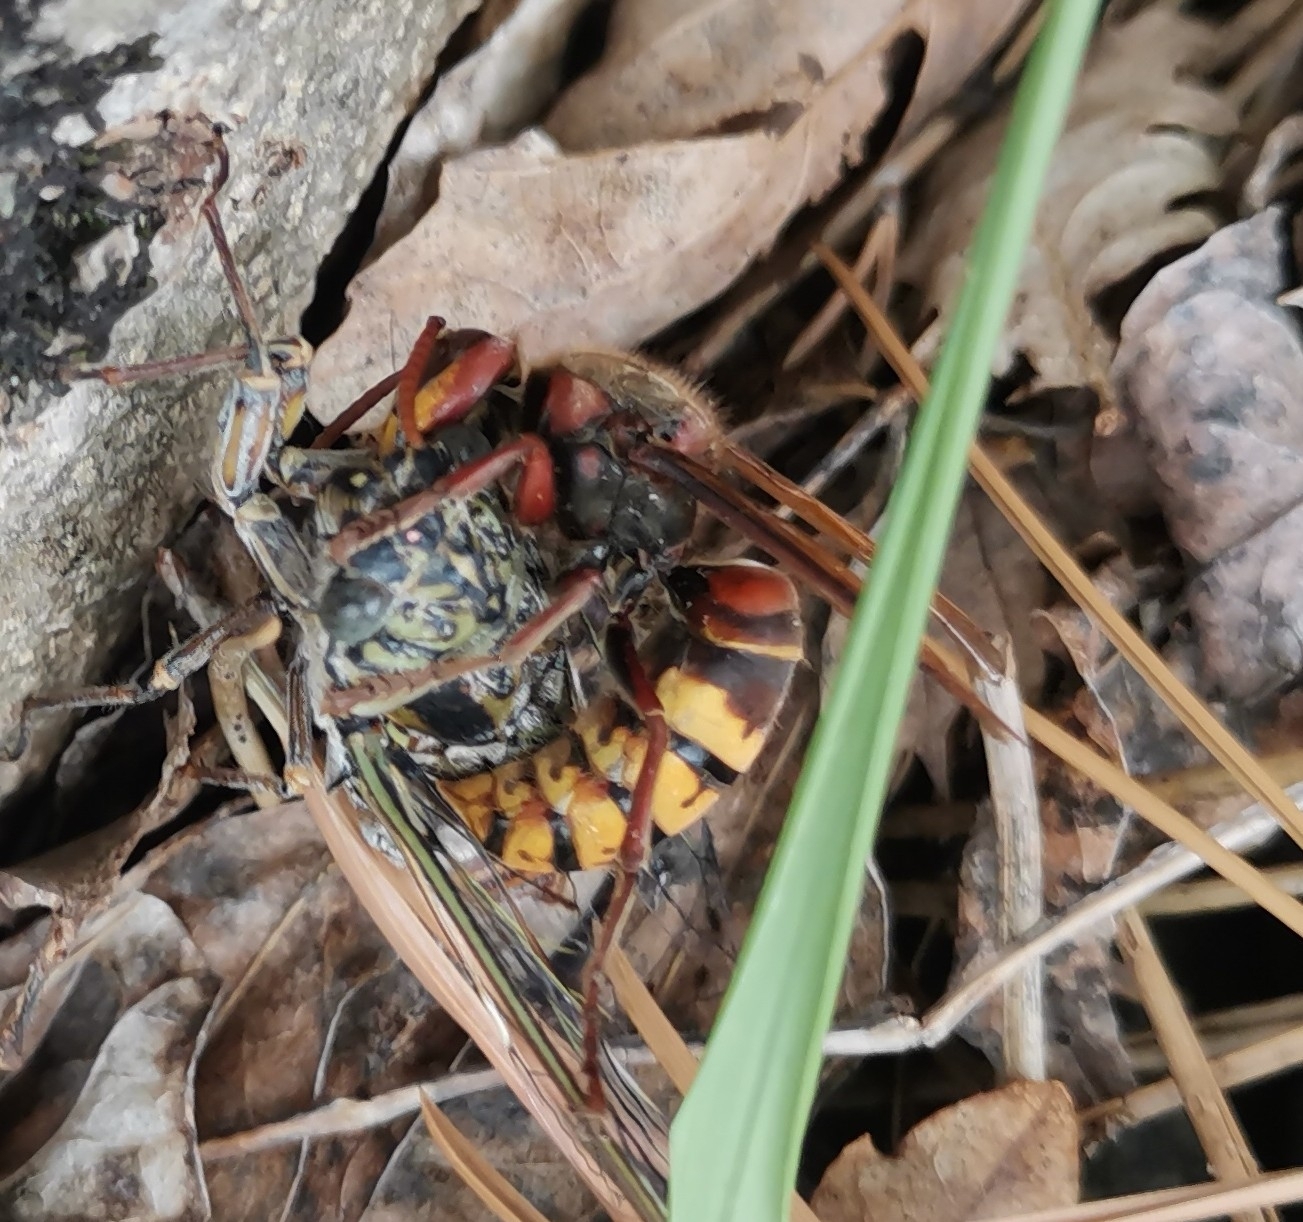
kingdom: Animalia
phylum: Arthropoda
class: Insecta
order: Hymenoptera
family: Vespidae
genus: Vespa
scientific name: Vespa crabro
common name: Hornet
